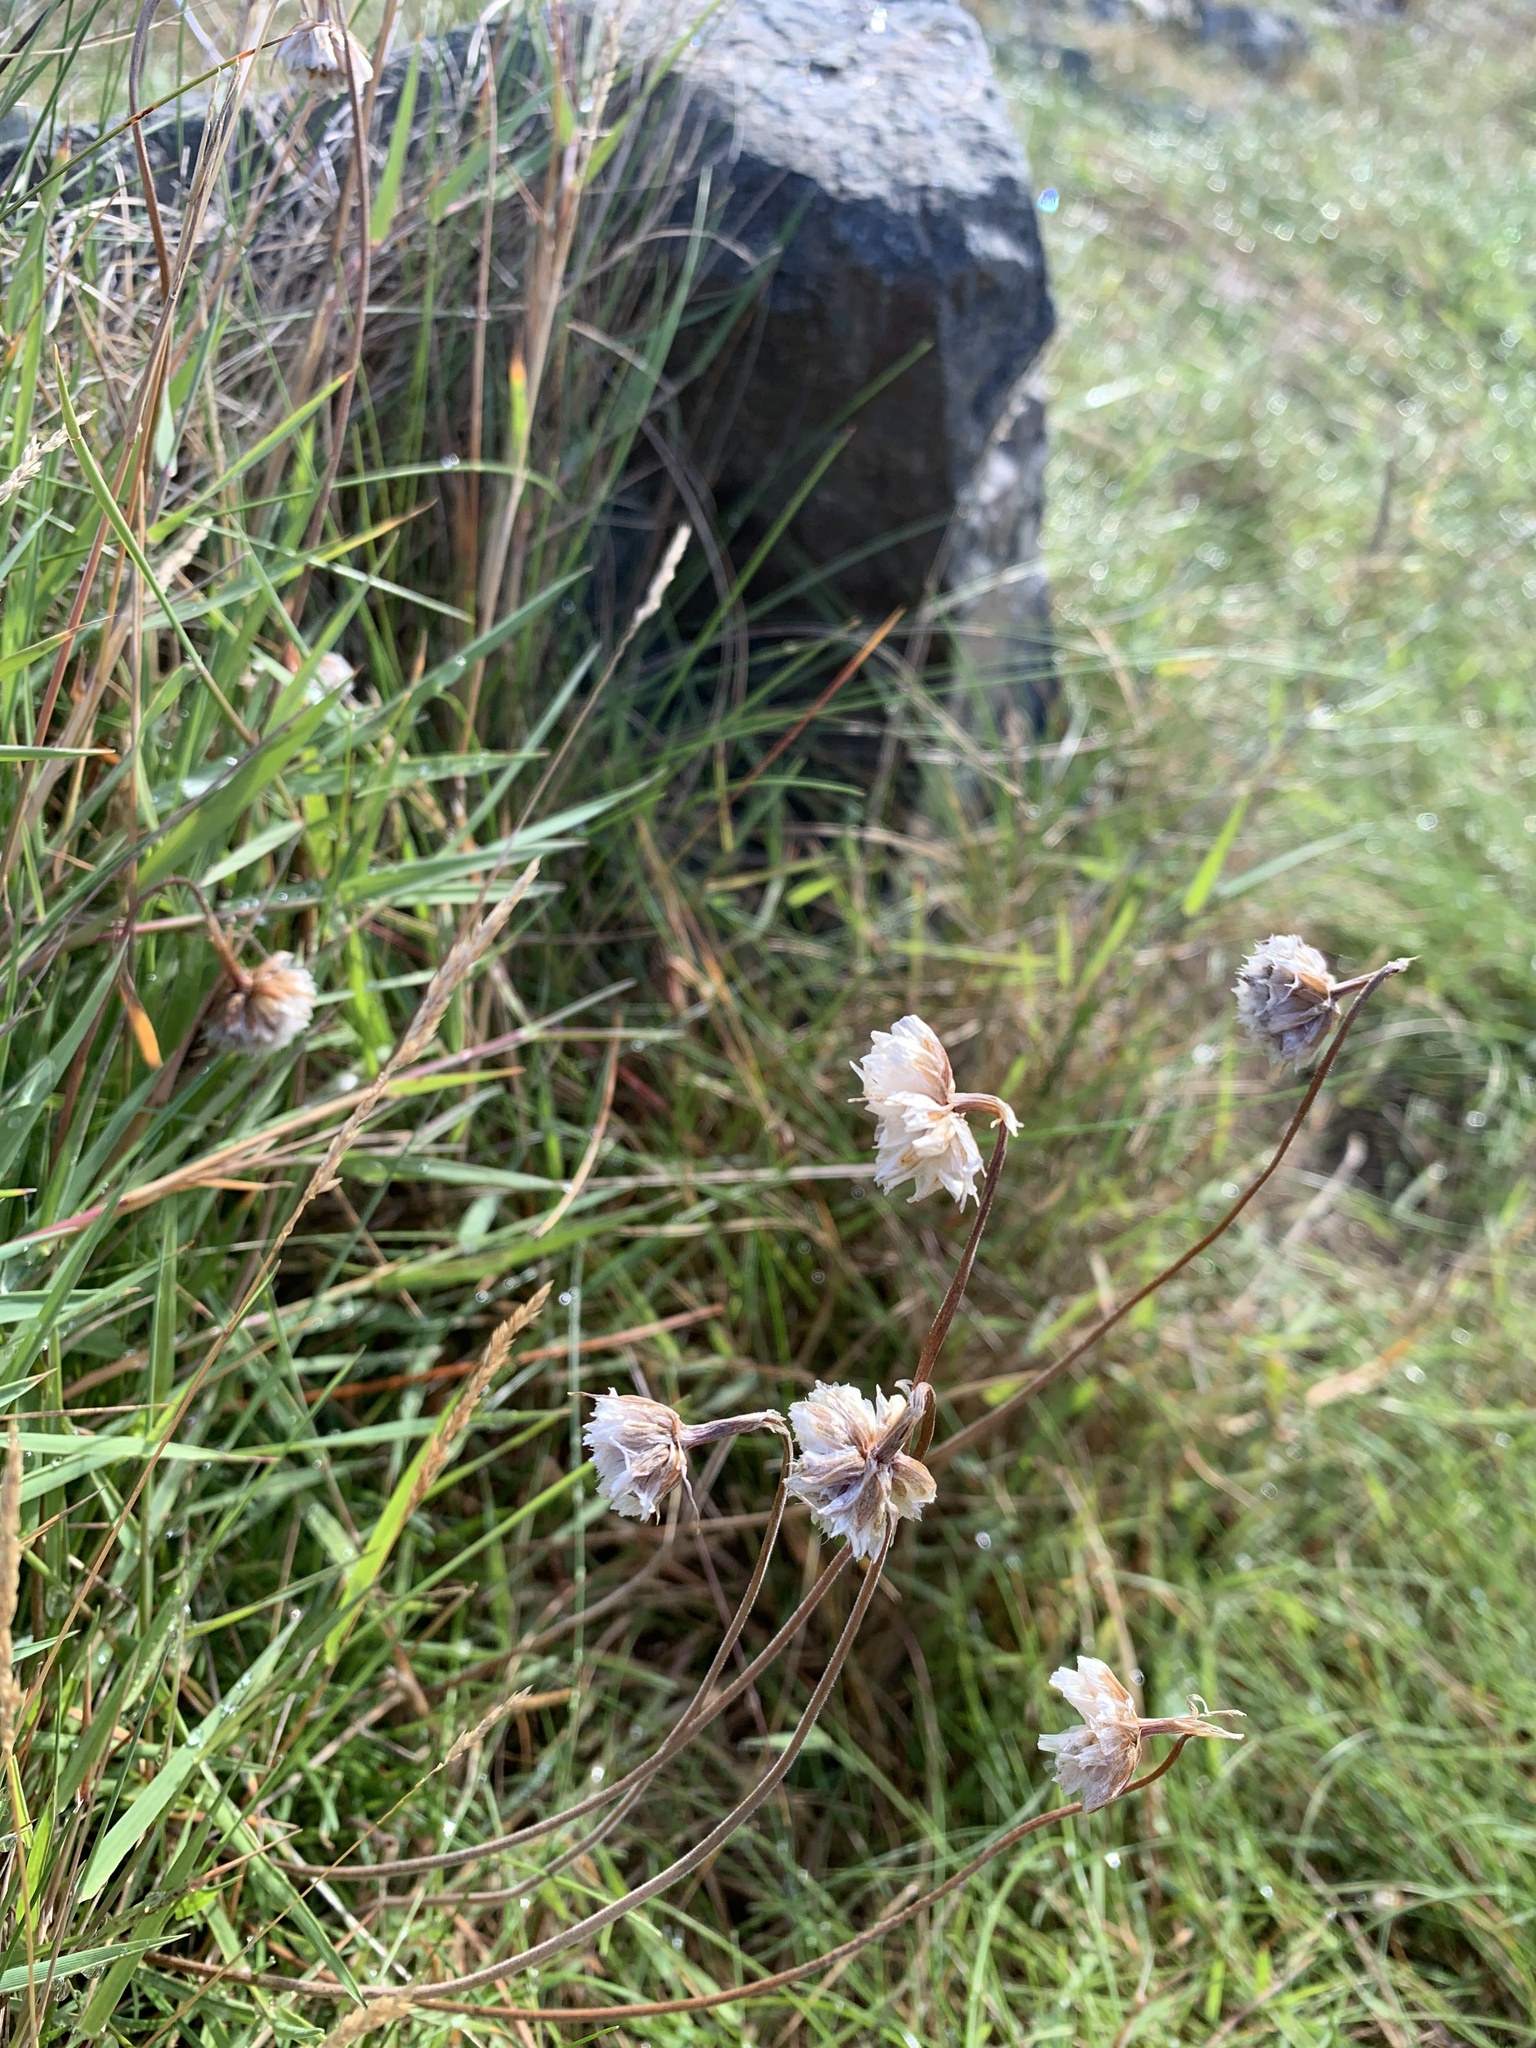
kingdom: Plantae
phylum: Tracheophyta
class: Magnoliopsida
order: Caryophyllales
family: Plumbaginaceae
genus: Armeria
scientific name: Armeria maritima
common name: Thrift
